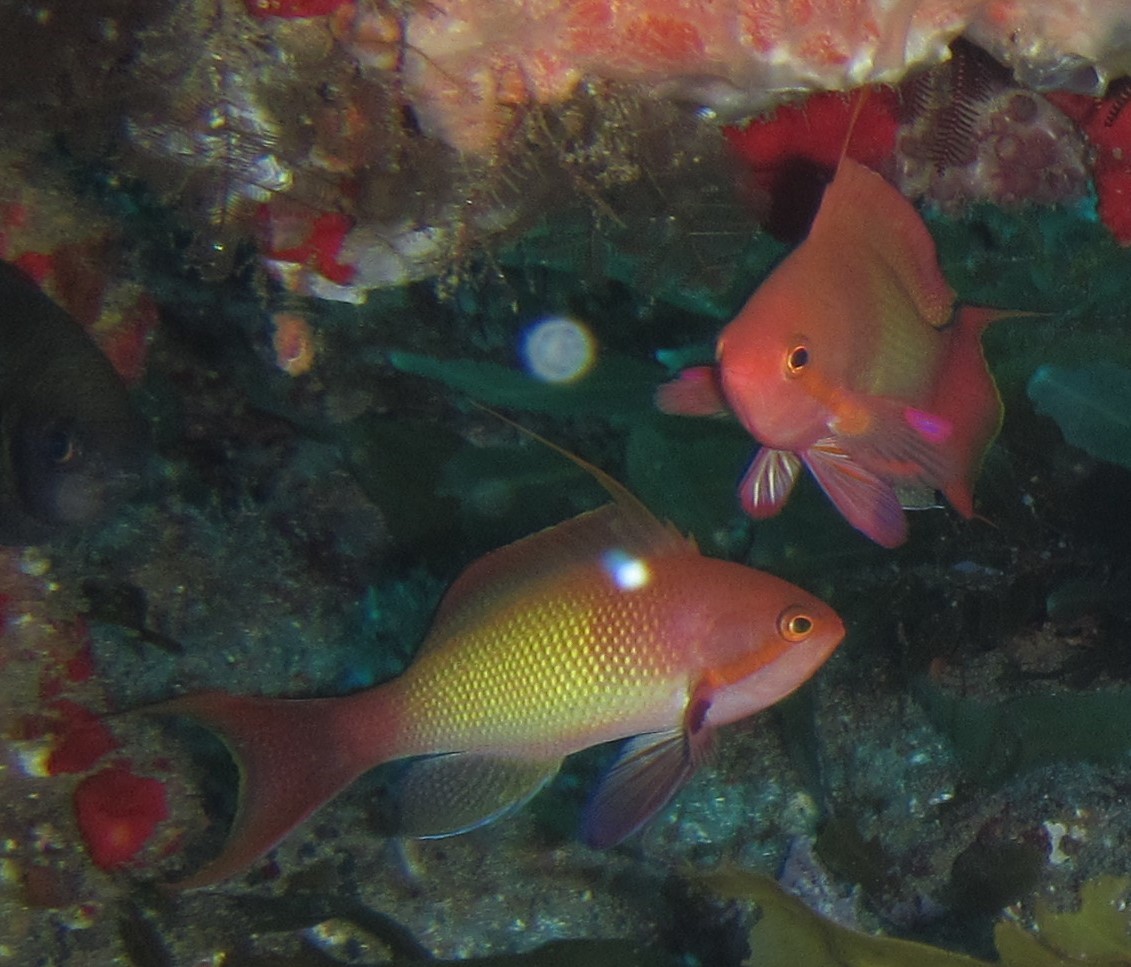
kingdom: Animalia
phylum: Chordata
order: Perciformes
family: Serranidae
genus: Pseudanthias
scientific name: Pseudanthias squamipinnis
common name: Scalefin anthias
